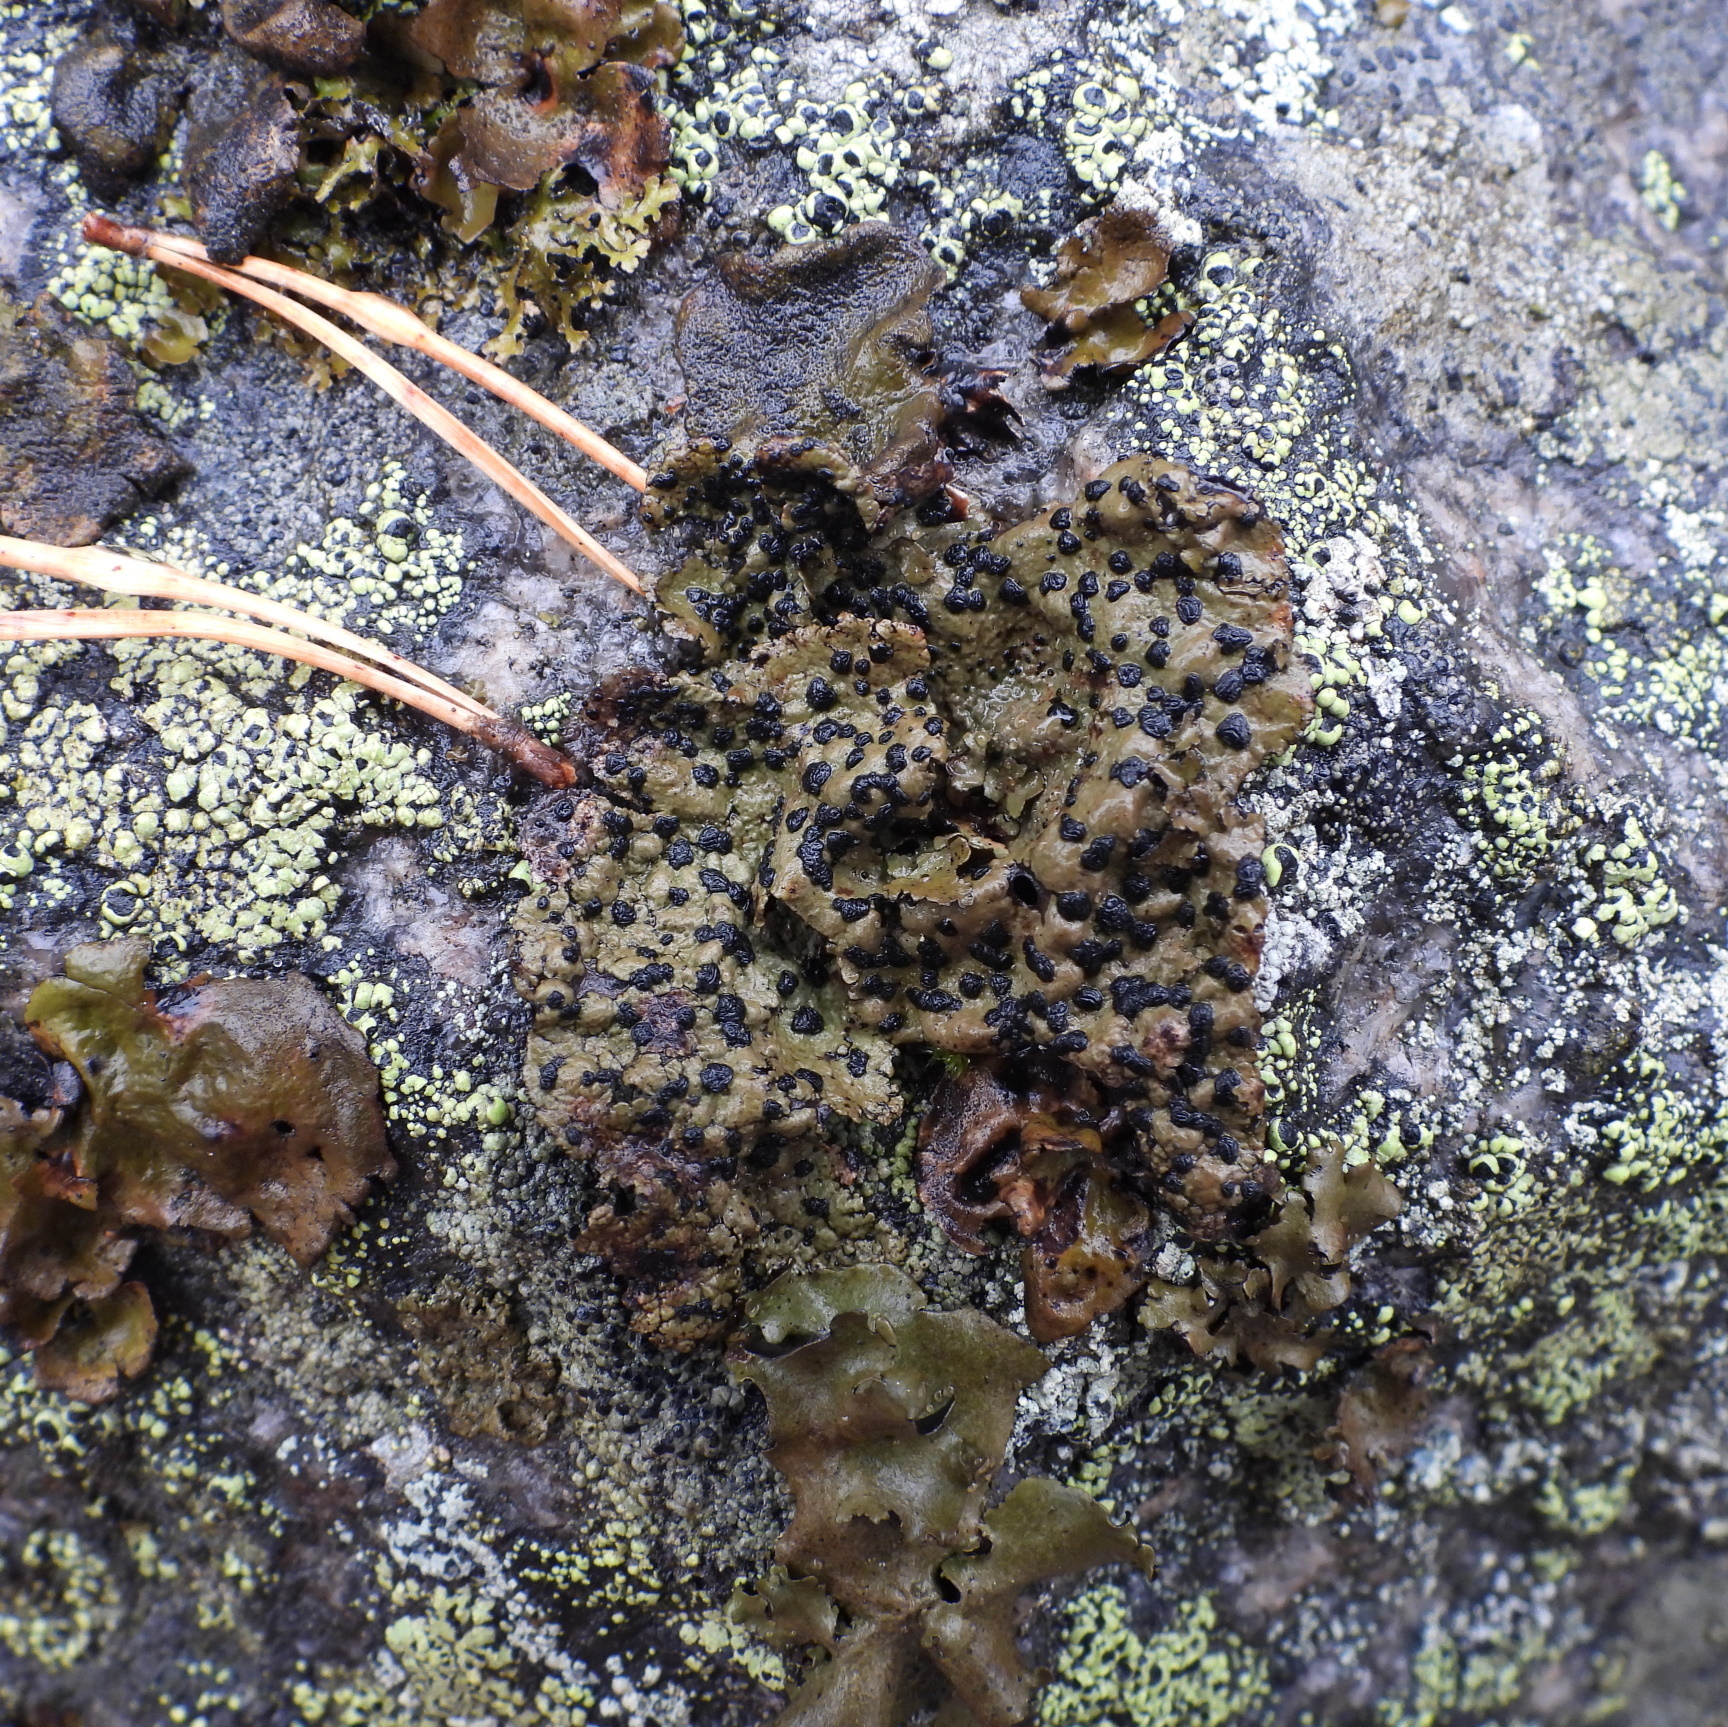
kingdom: Fungi
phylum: Ascomycota
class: Lecanoromycetes
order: Umbilicariales
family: Umbilicariaceae
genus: Umbilicaria
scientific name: Umbilicaria hyperborea
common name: Blistered rock tripe
